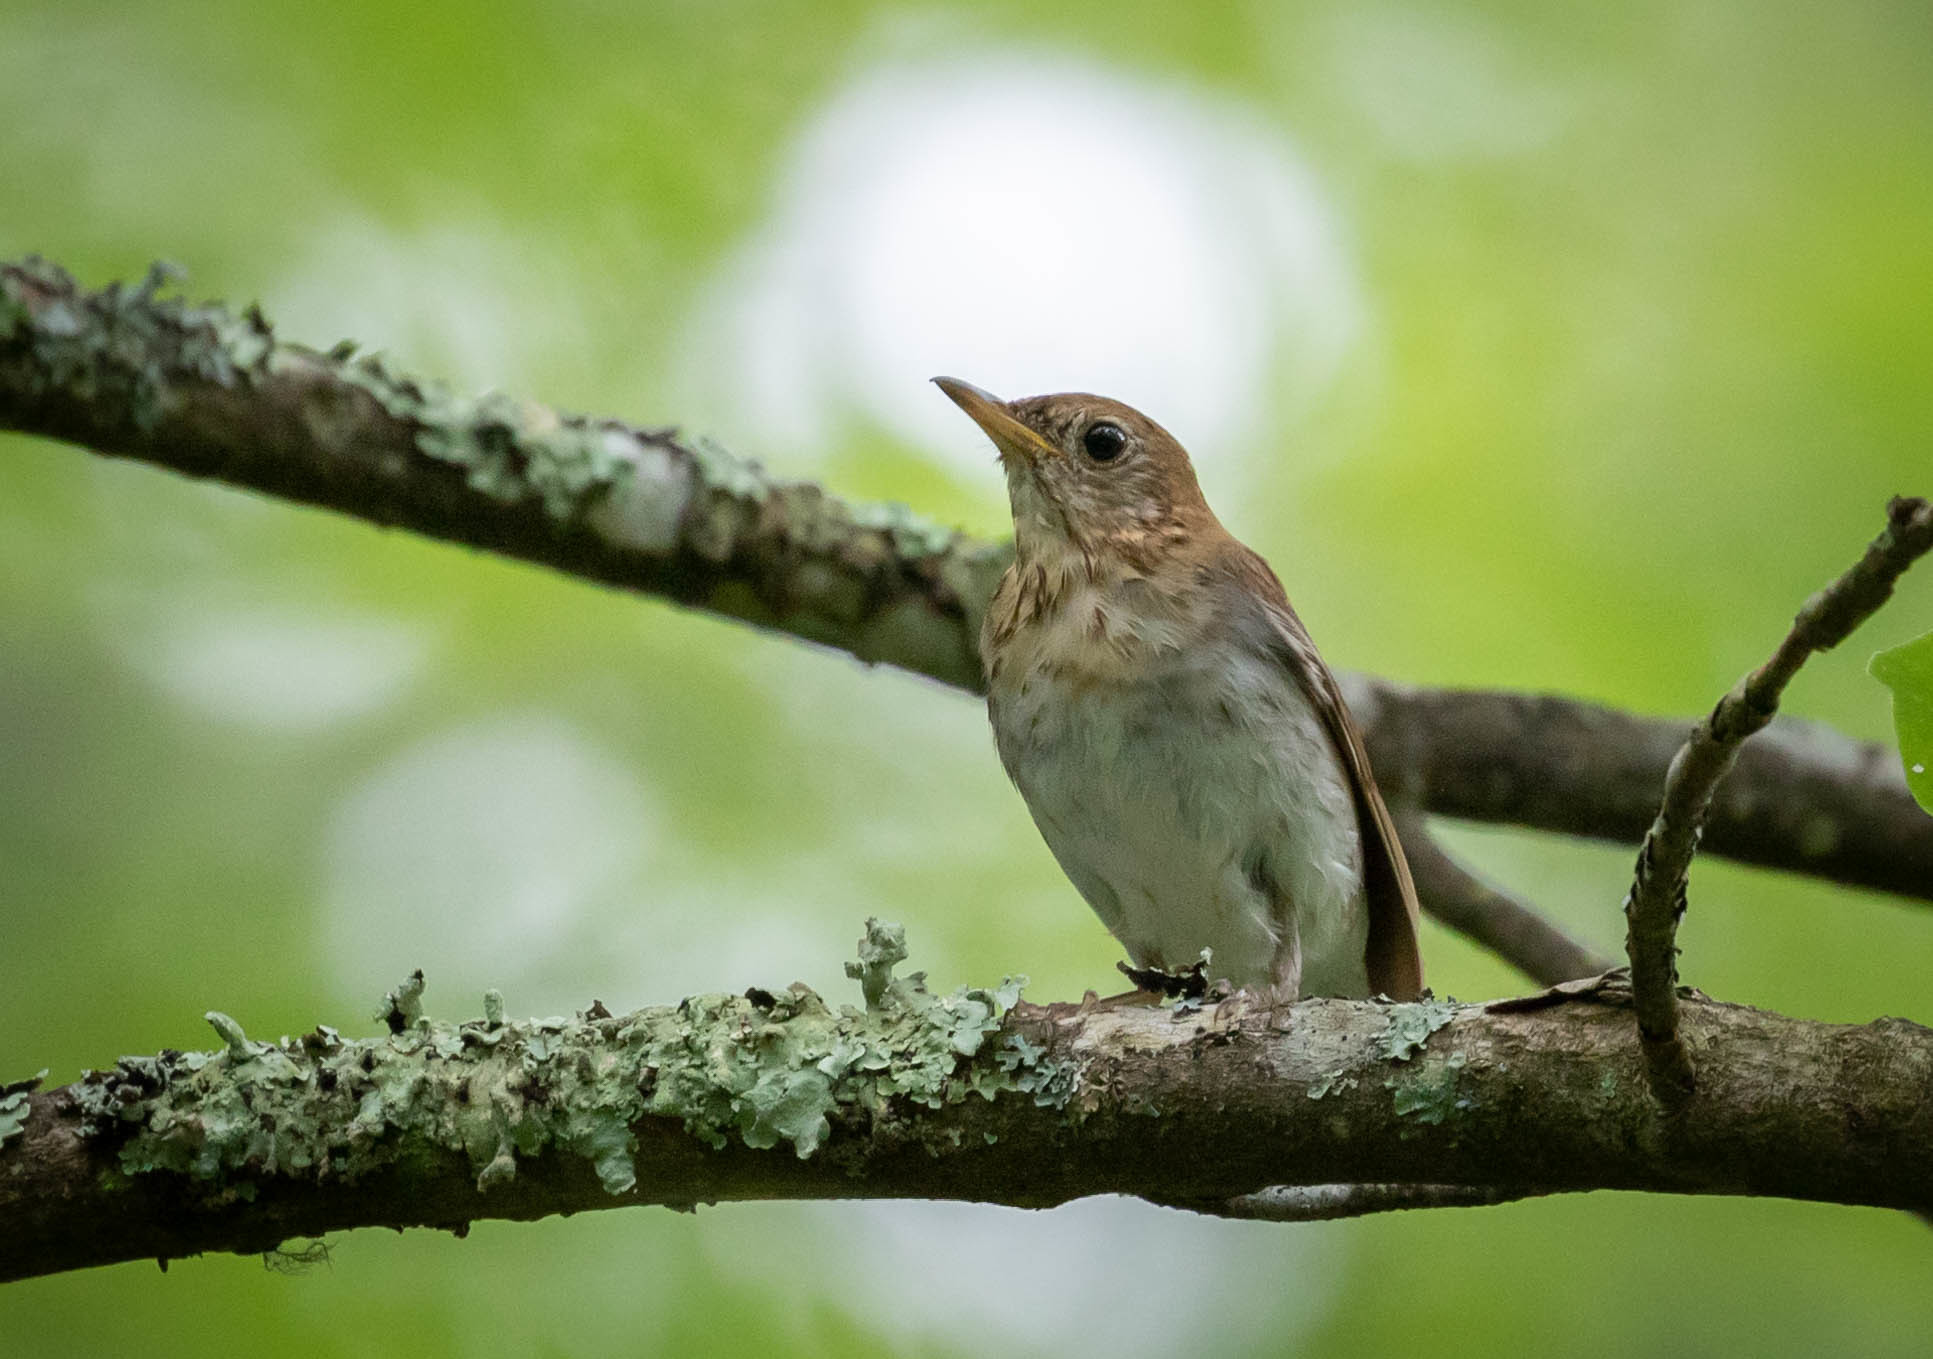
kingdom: Animalia
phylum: Chordata
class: Aves
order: Passeriformes
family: Turdidae
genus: Catharus
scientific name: Catharus fuscescens
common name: Veery
